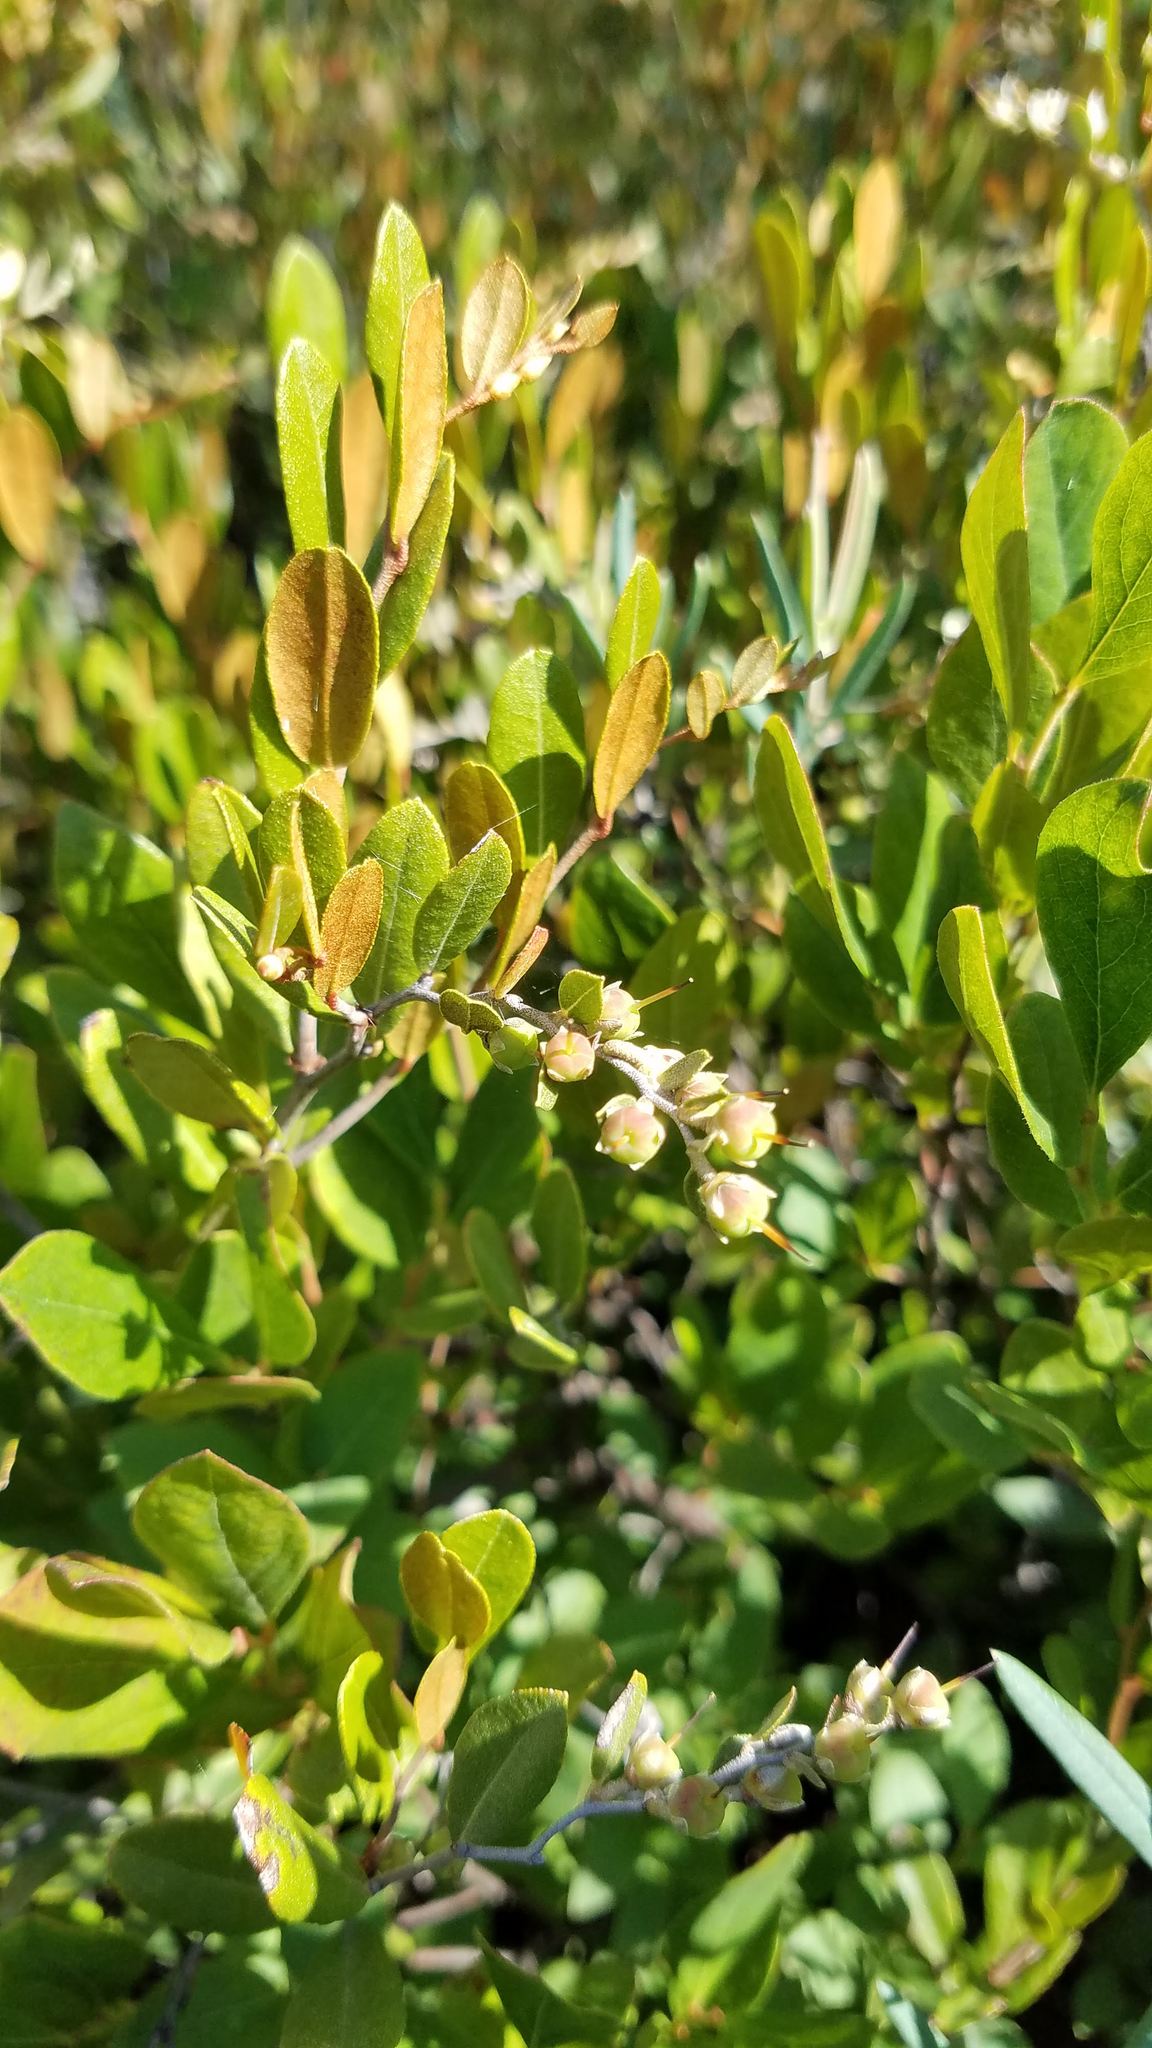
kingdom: Plantae
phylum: Tracheophyta
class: Magnoliopsida
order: Ericales
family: Ericaceae
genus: Chamaedaphne
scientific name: Chamaedaphne calyculata
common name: Leatherleaf
